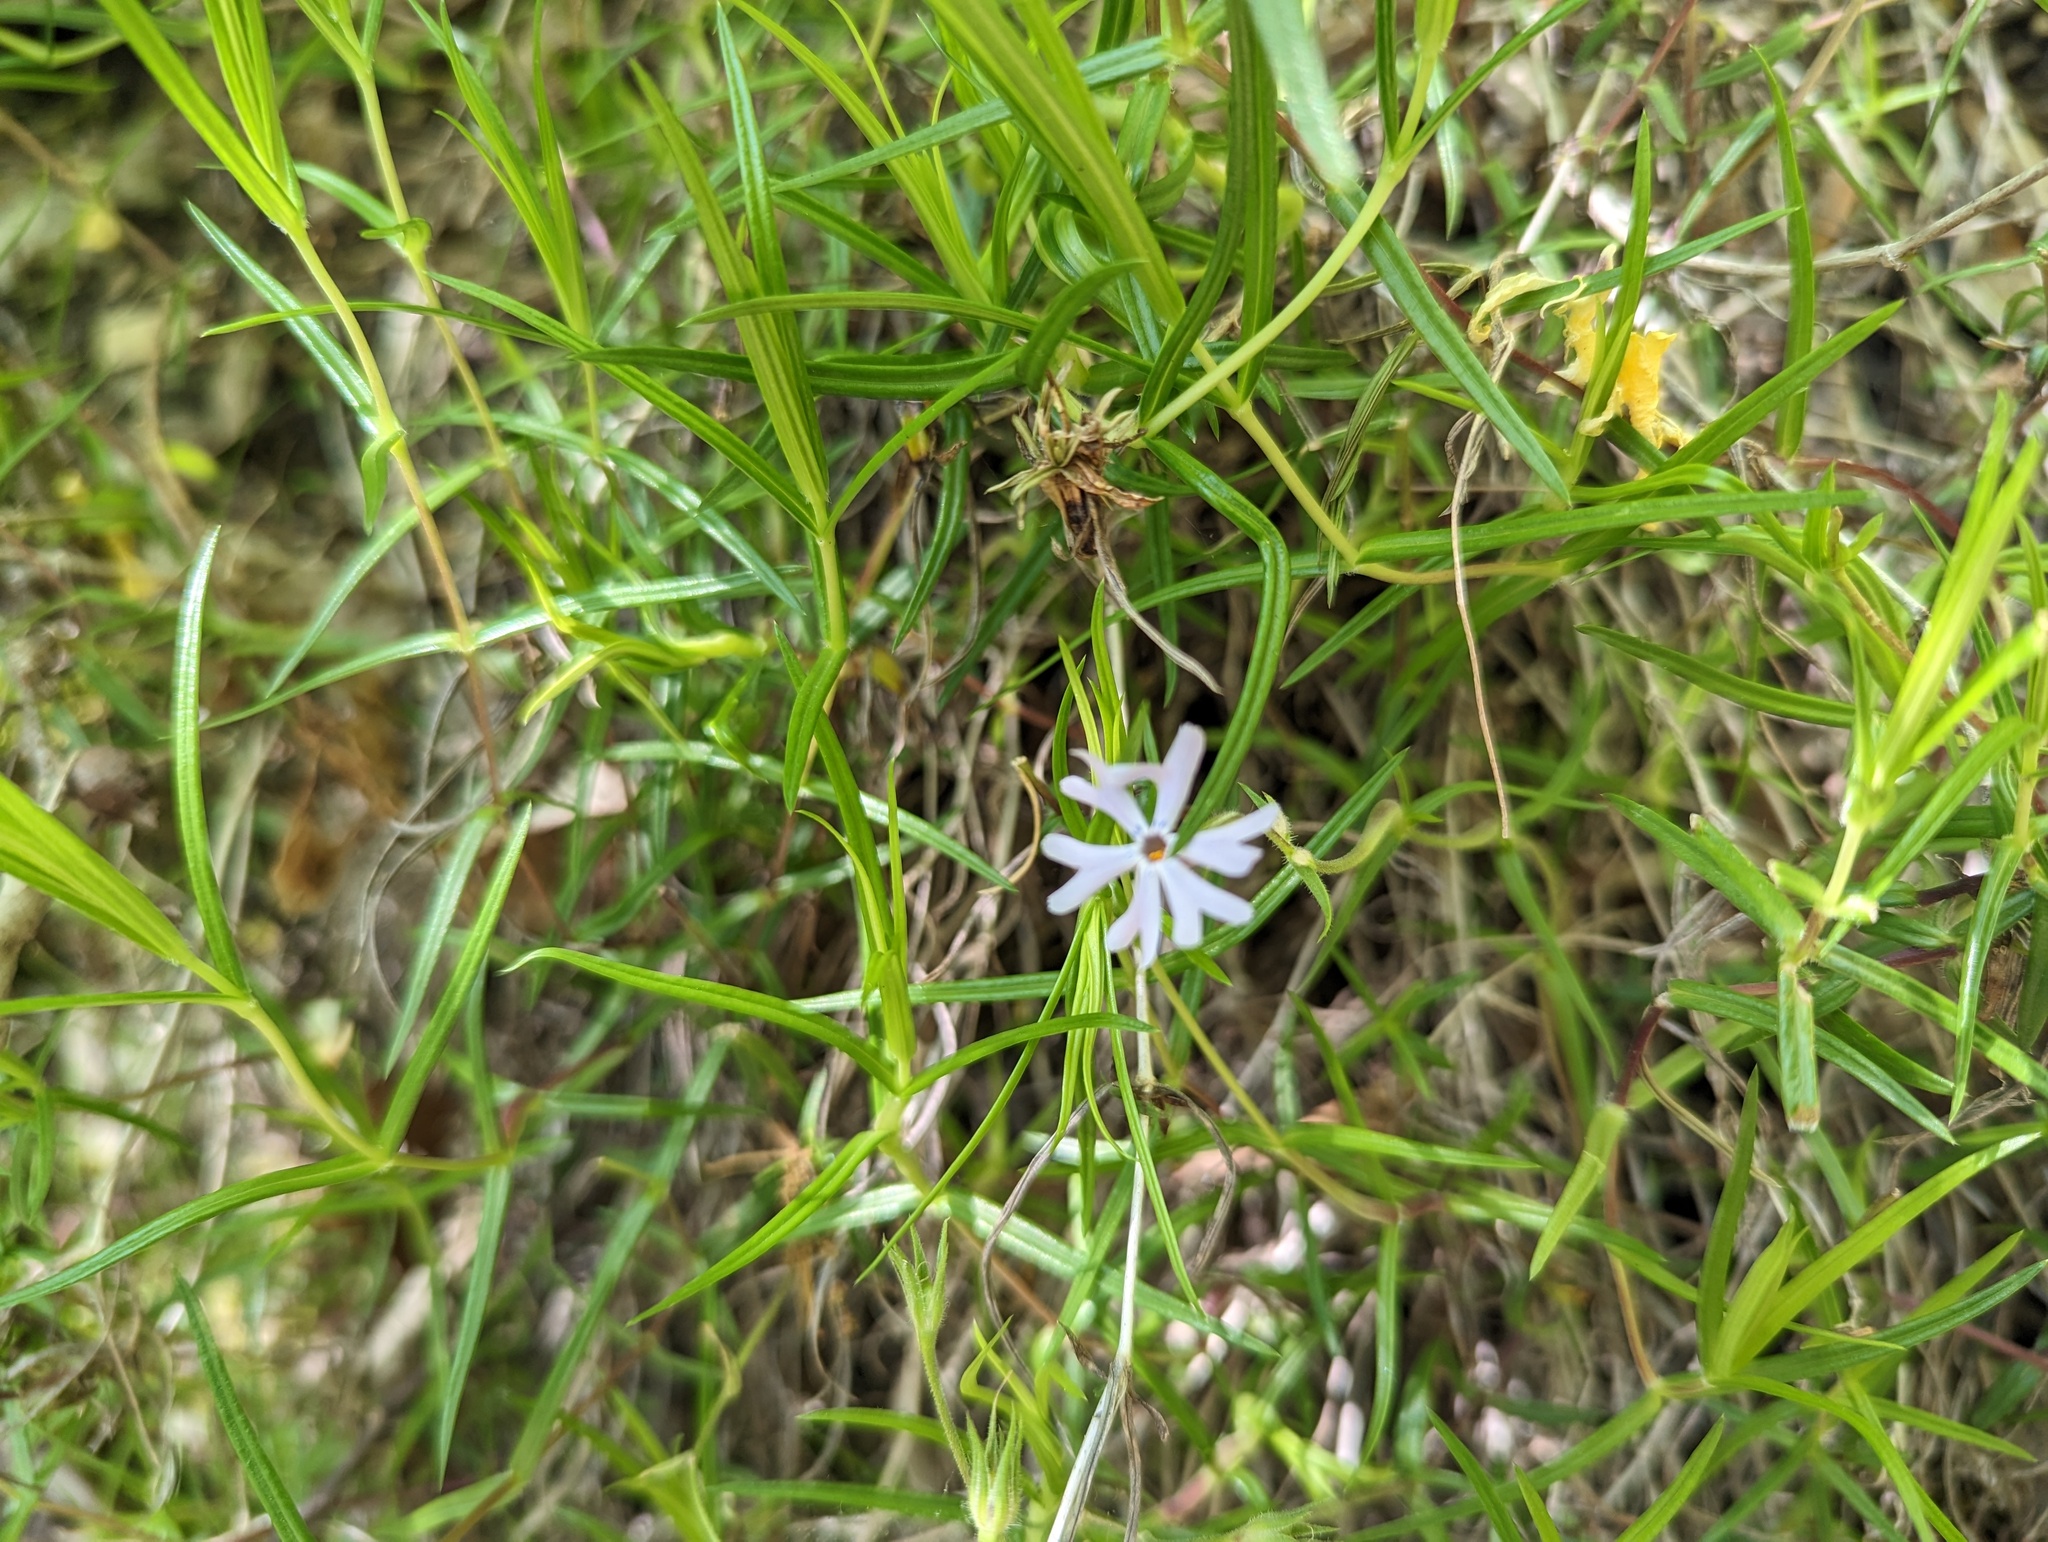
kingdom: Plantae
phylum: Tracheophyta
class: Magnoliopsida
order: Ericales
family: Polemoniaceae
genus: Phlox
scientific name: Phlox bifida
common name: Sand phlox
